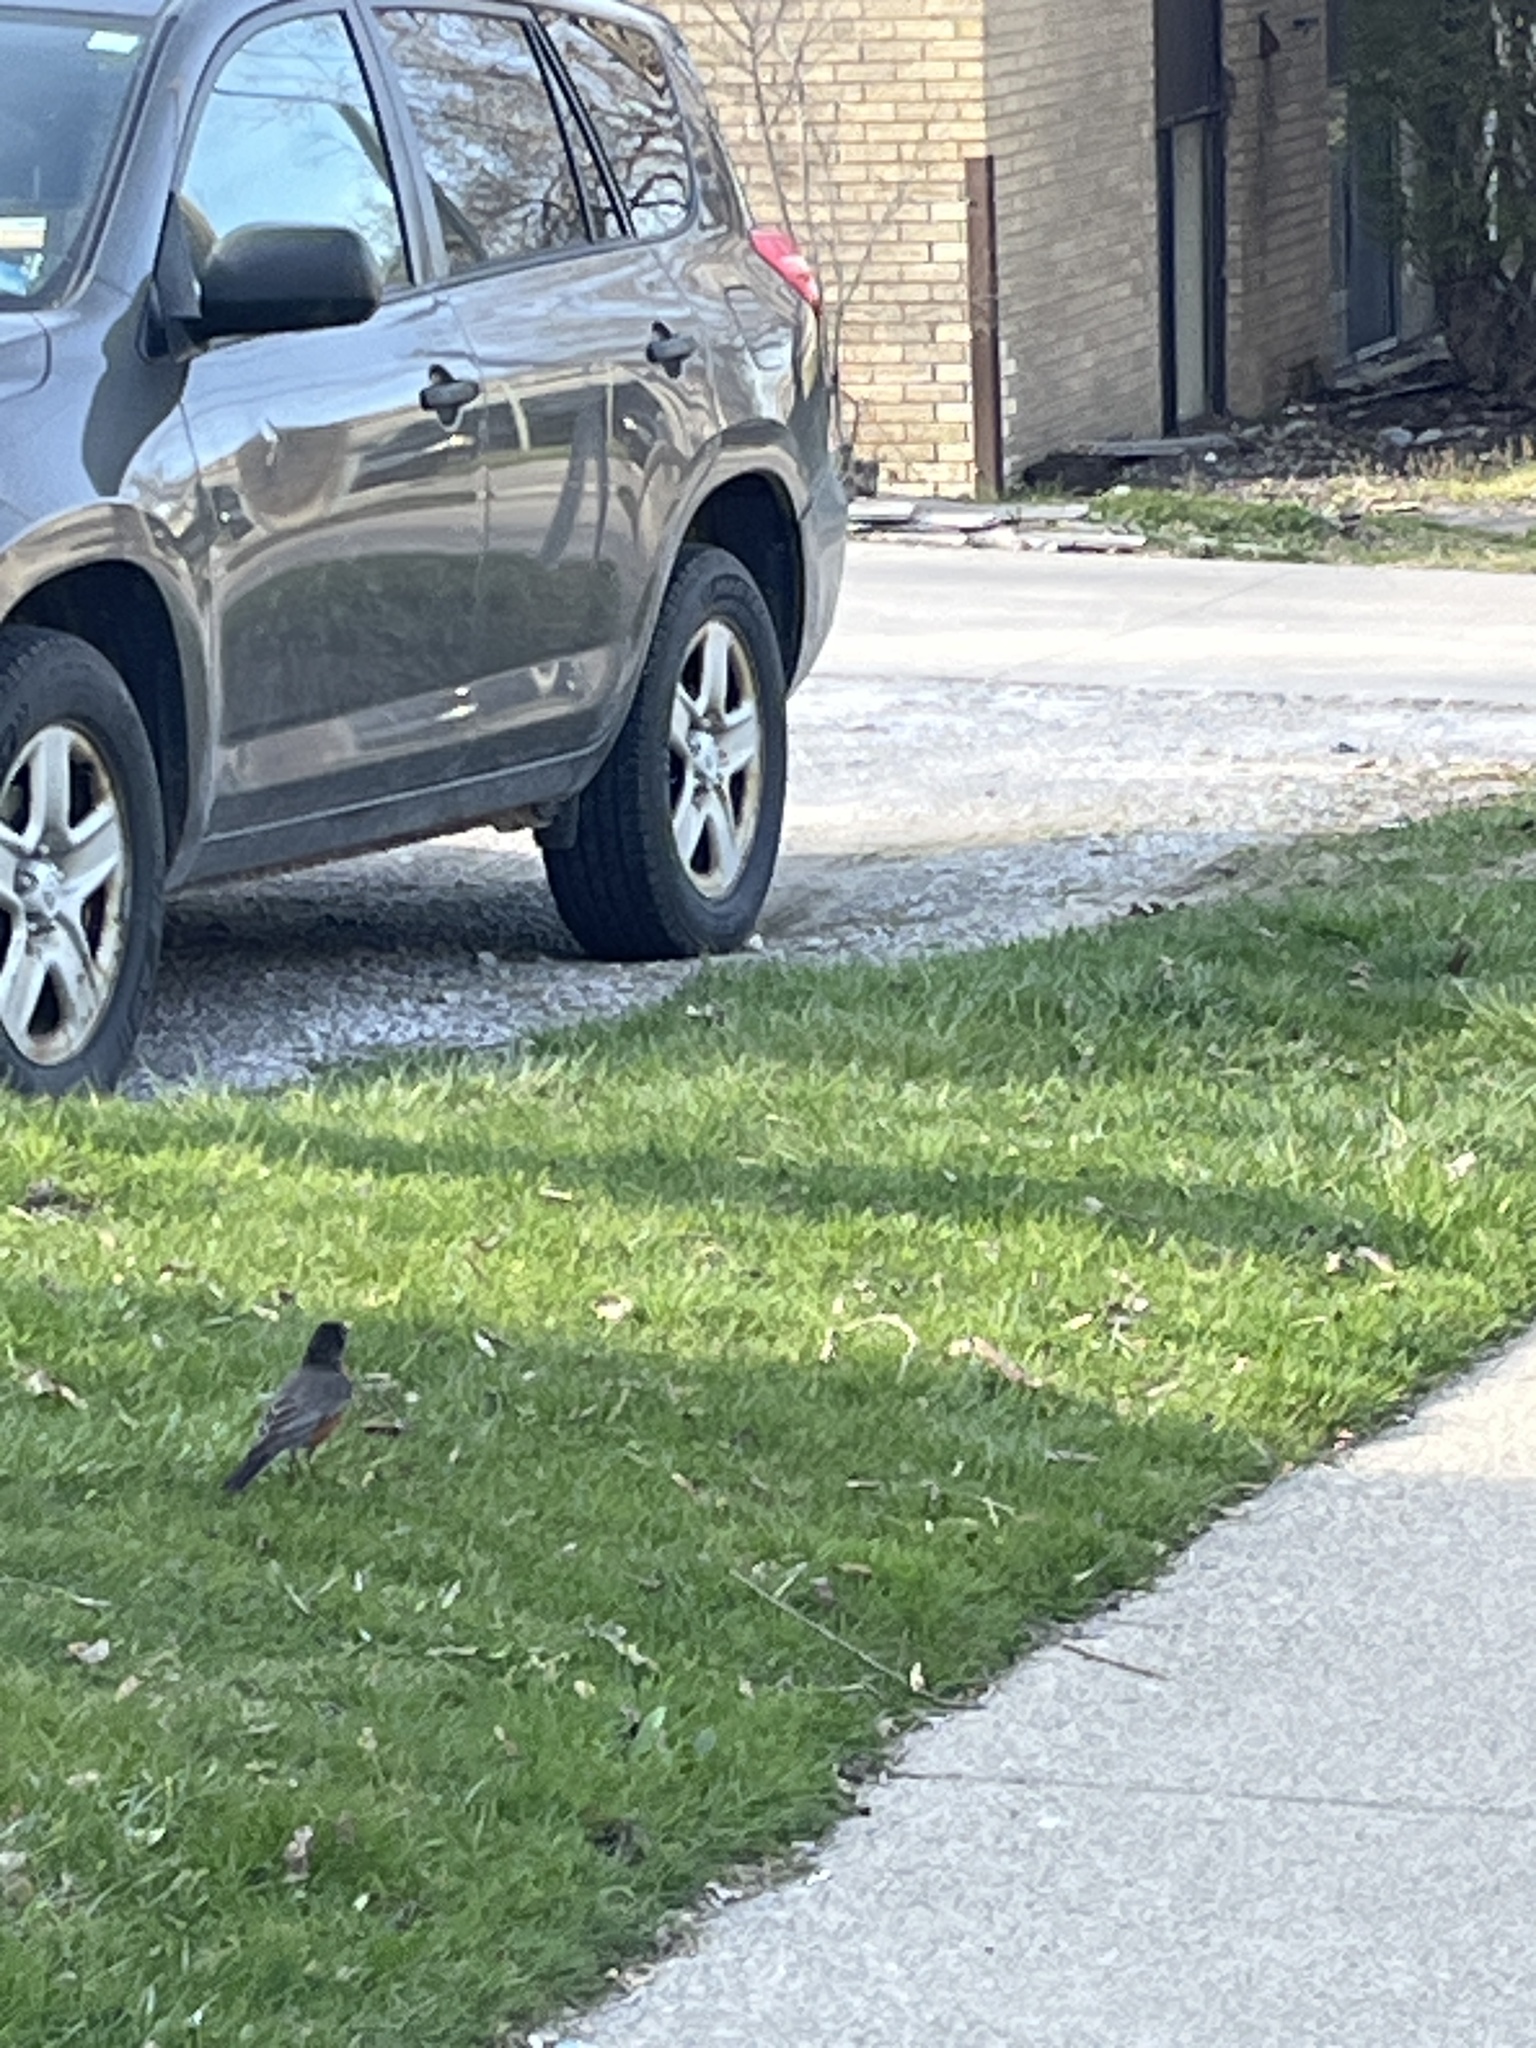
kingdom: Animalia
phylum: Chordata
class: Aves
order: Passeriformes
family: Turdidae
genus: Turdus
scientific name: Turdus migratorius
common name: American robin
